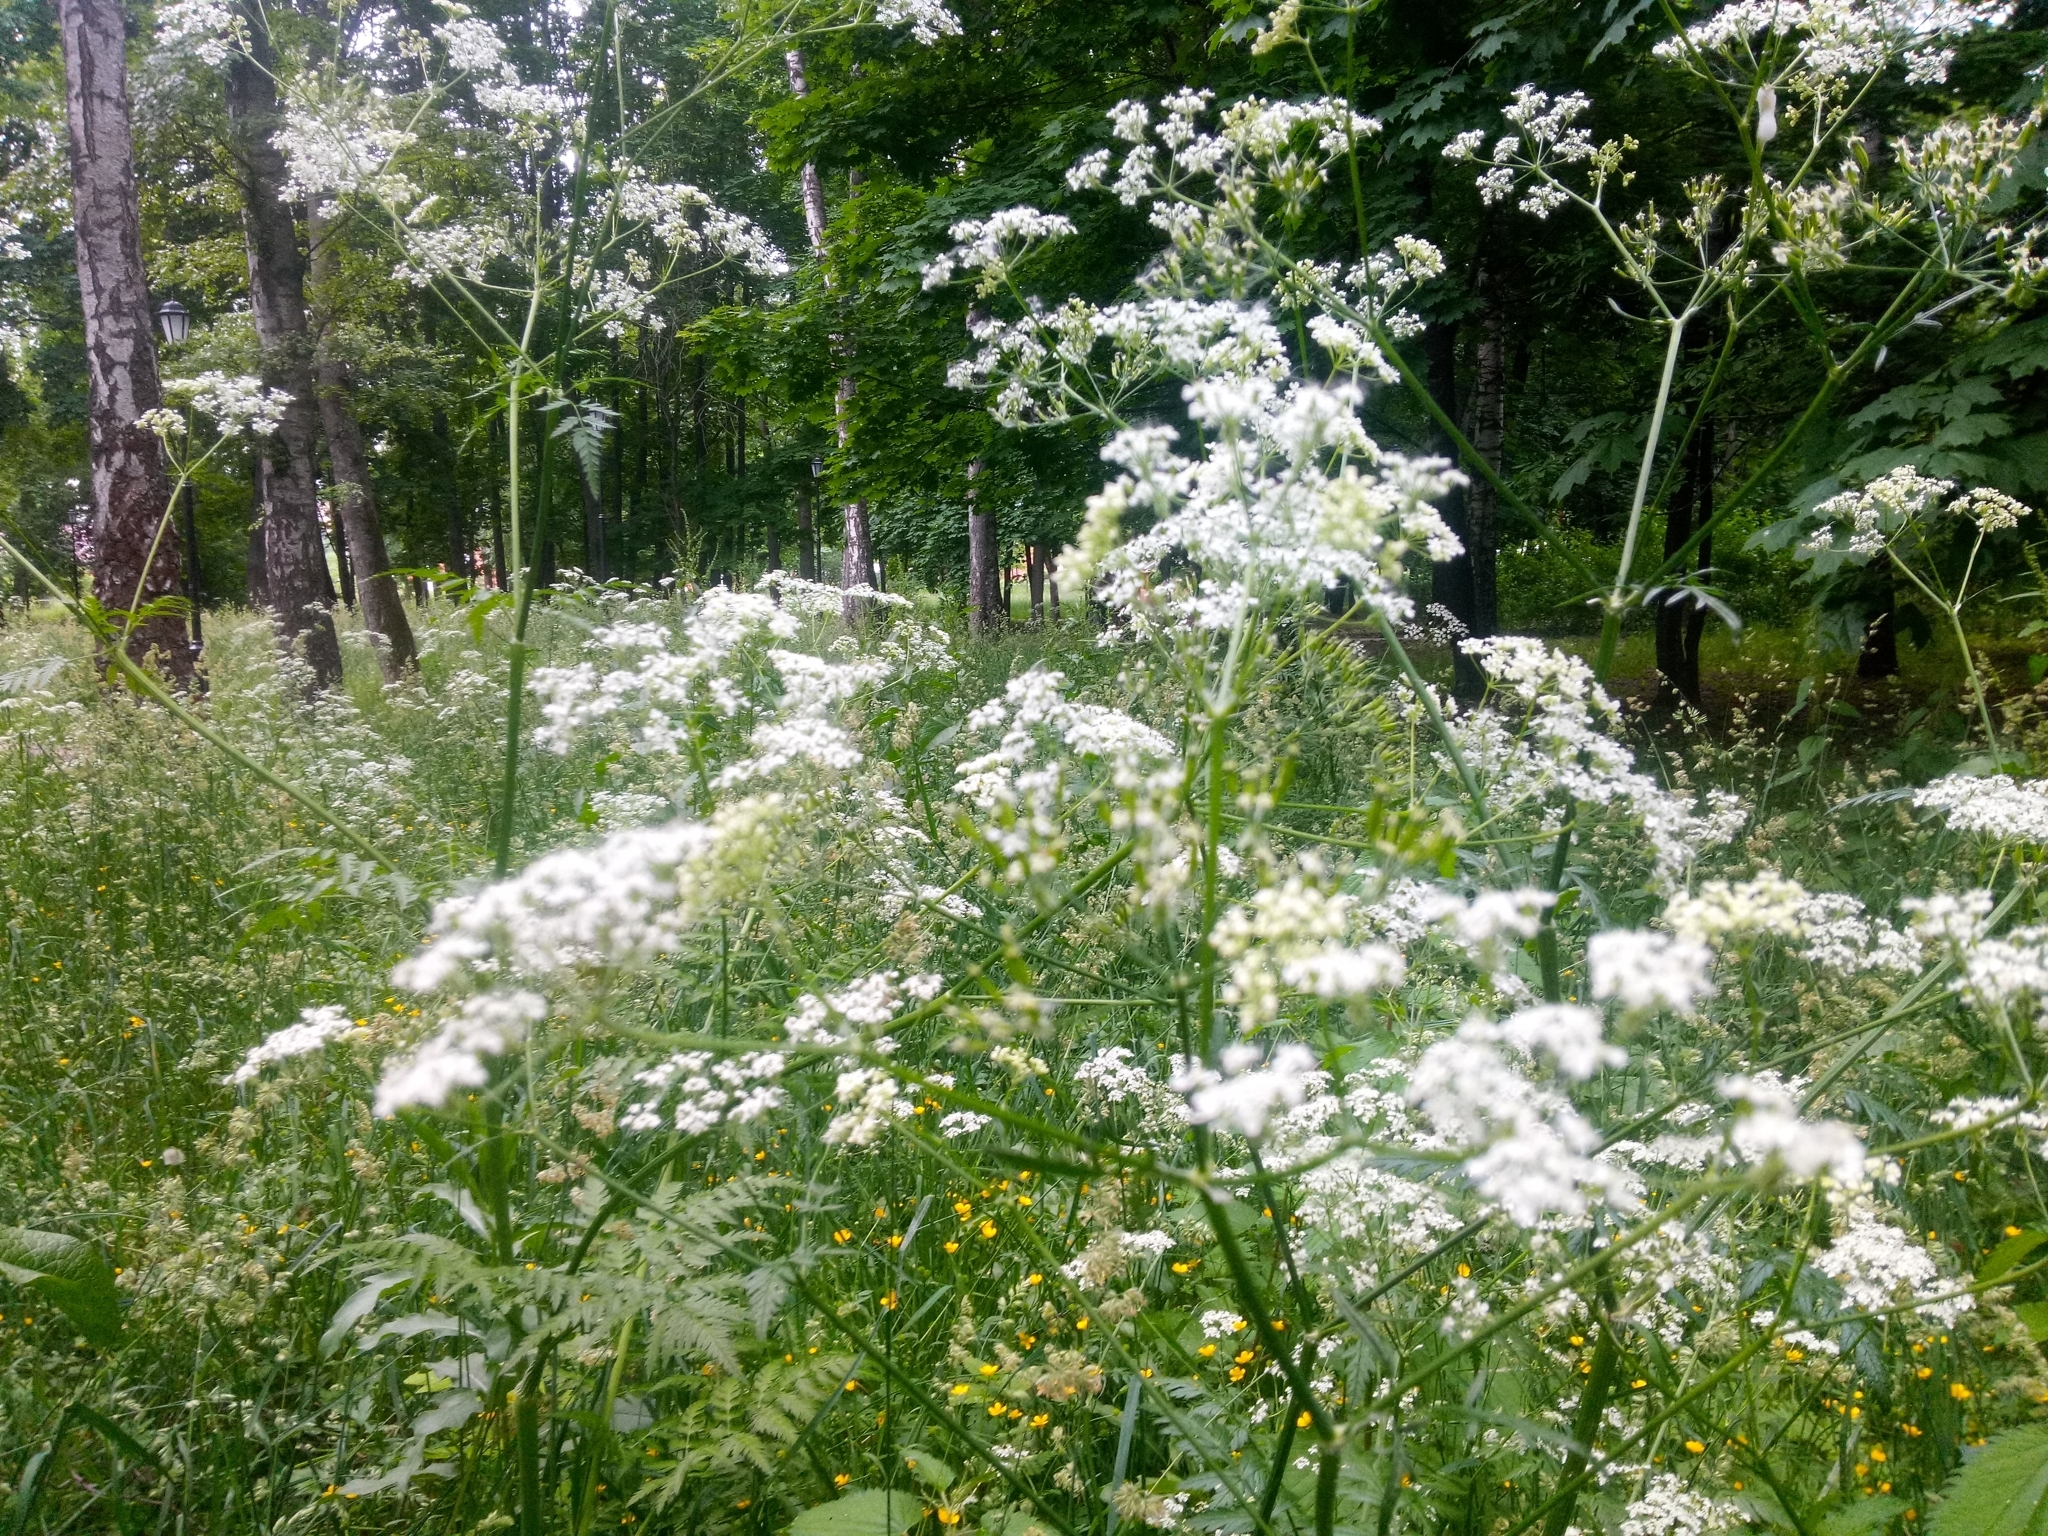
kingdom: Plantae
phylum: Tracheophyta
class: Magnoliopsida
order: Apiales
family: Apiaceae
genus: Anthriscus
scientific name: Anthriscus sylvestris
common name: Cow parsley
